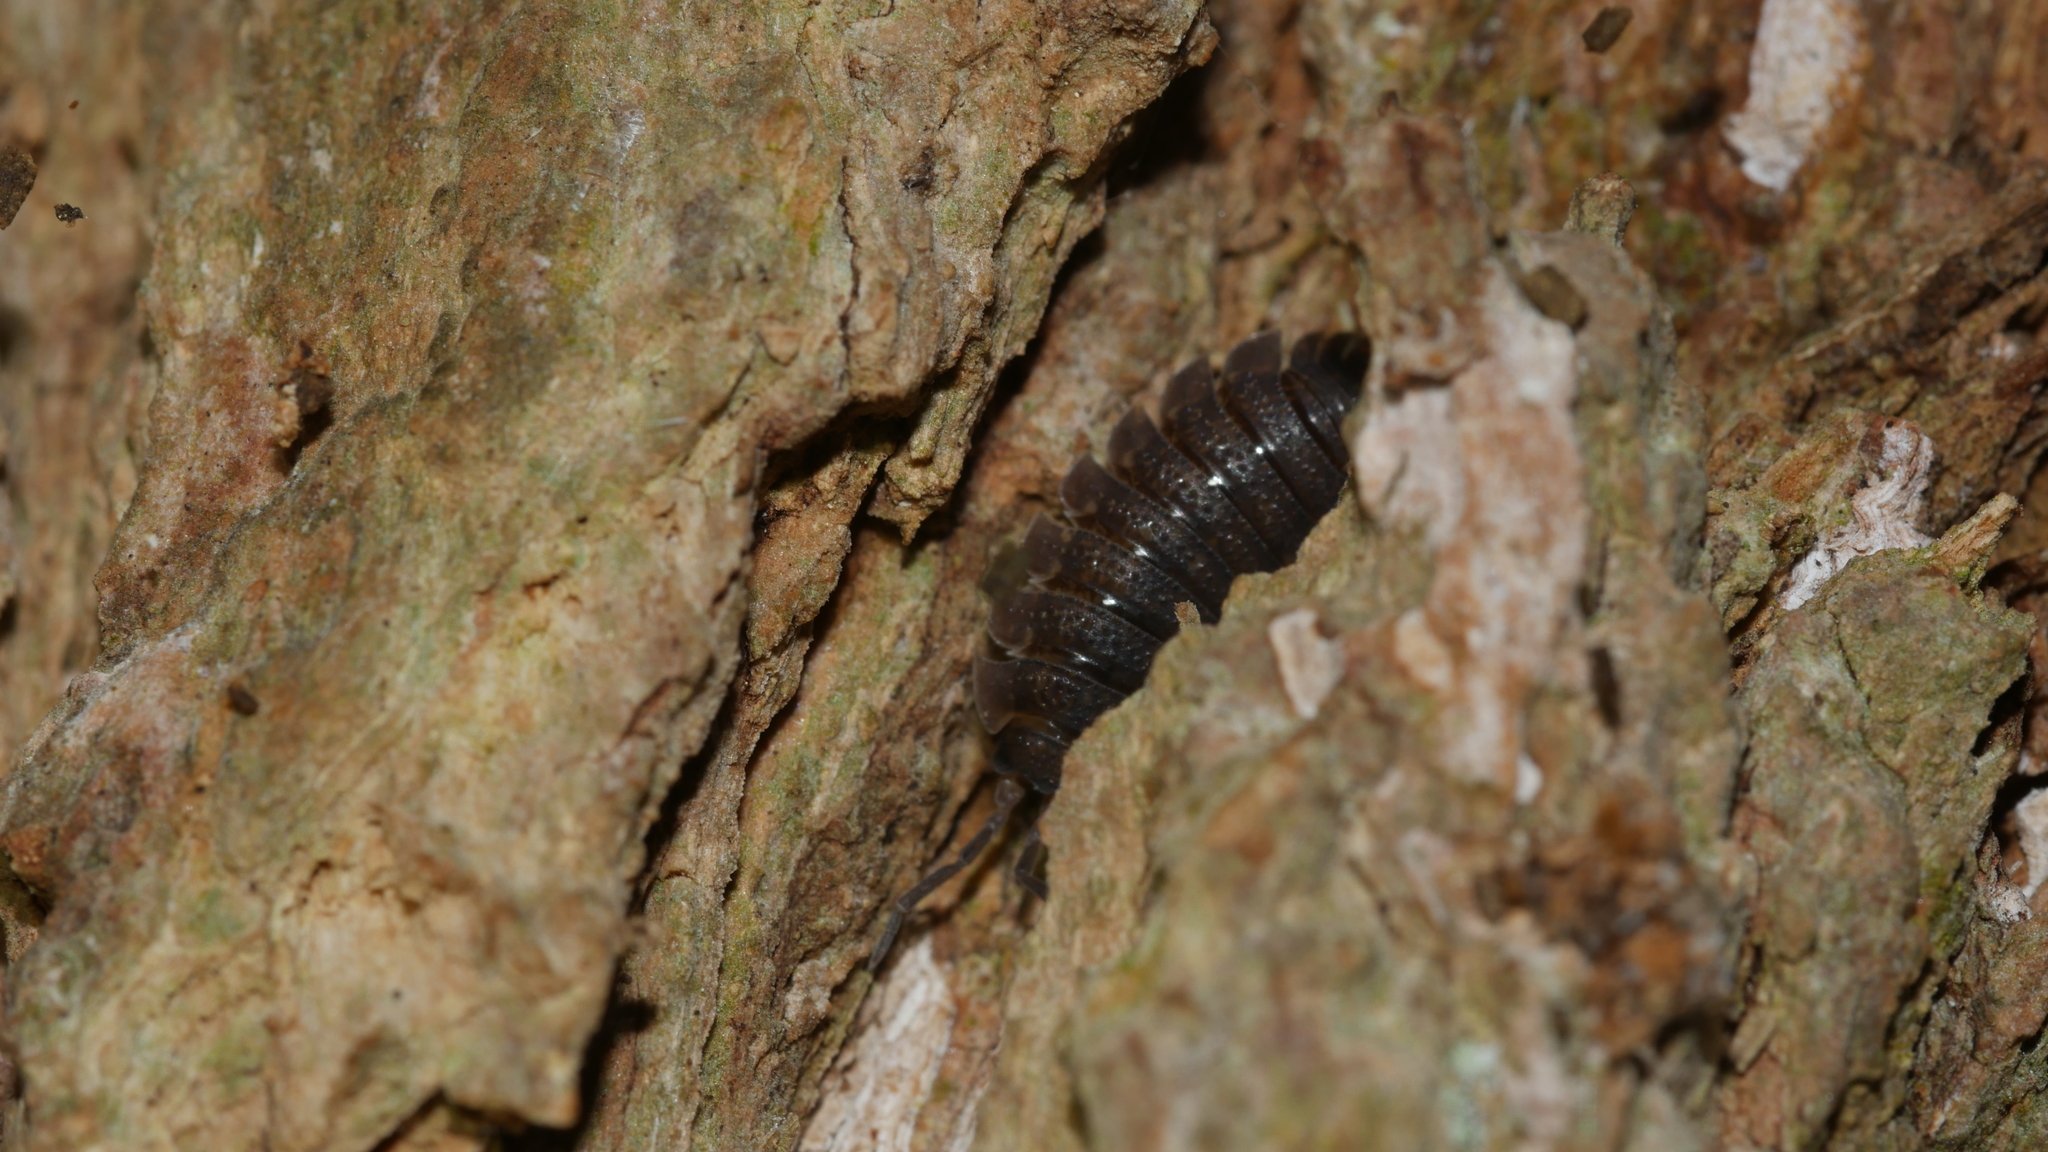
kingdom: Animalia
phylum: Arthropoda
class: Malacostraca
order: Isopoda
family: Porcellionidae
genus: Porcellio
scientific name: Porcellio scaber
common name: Common rough woodlouse
